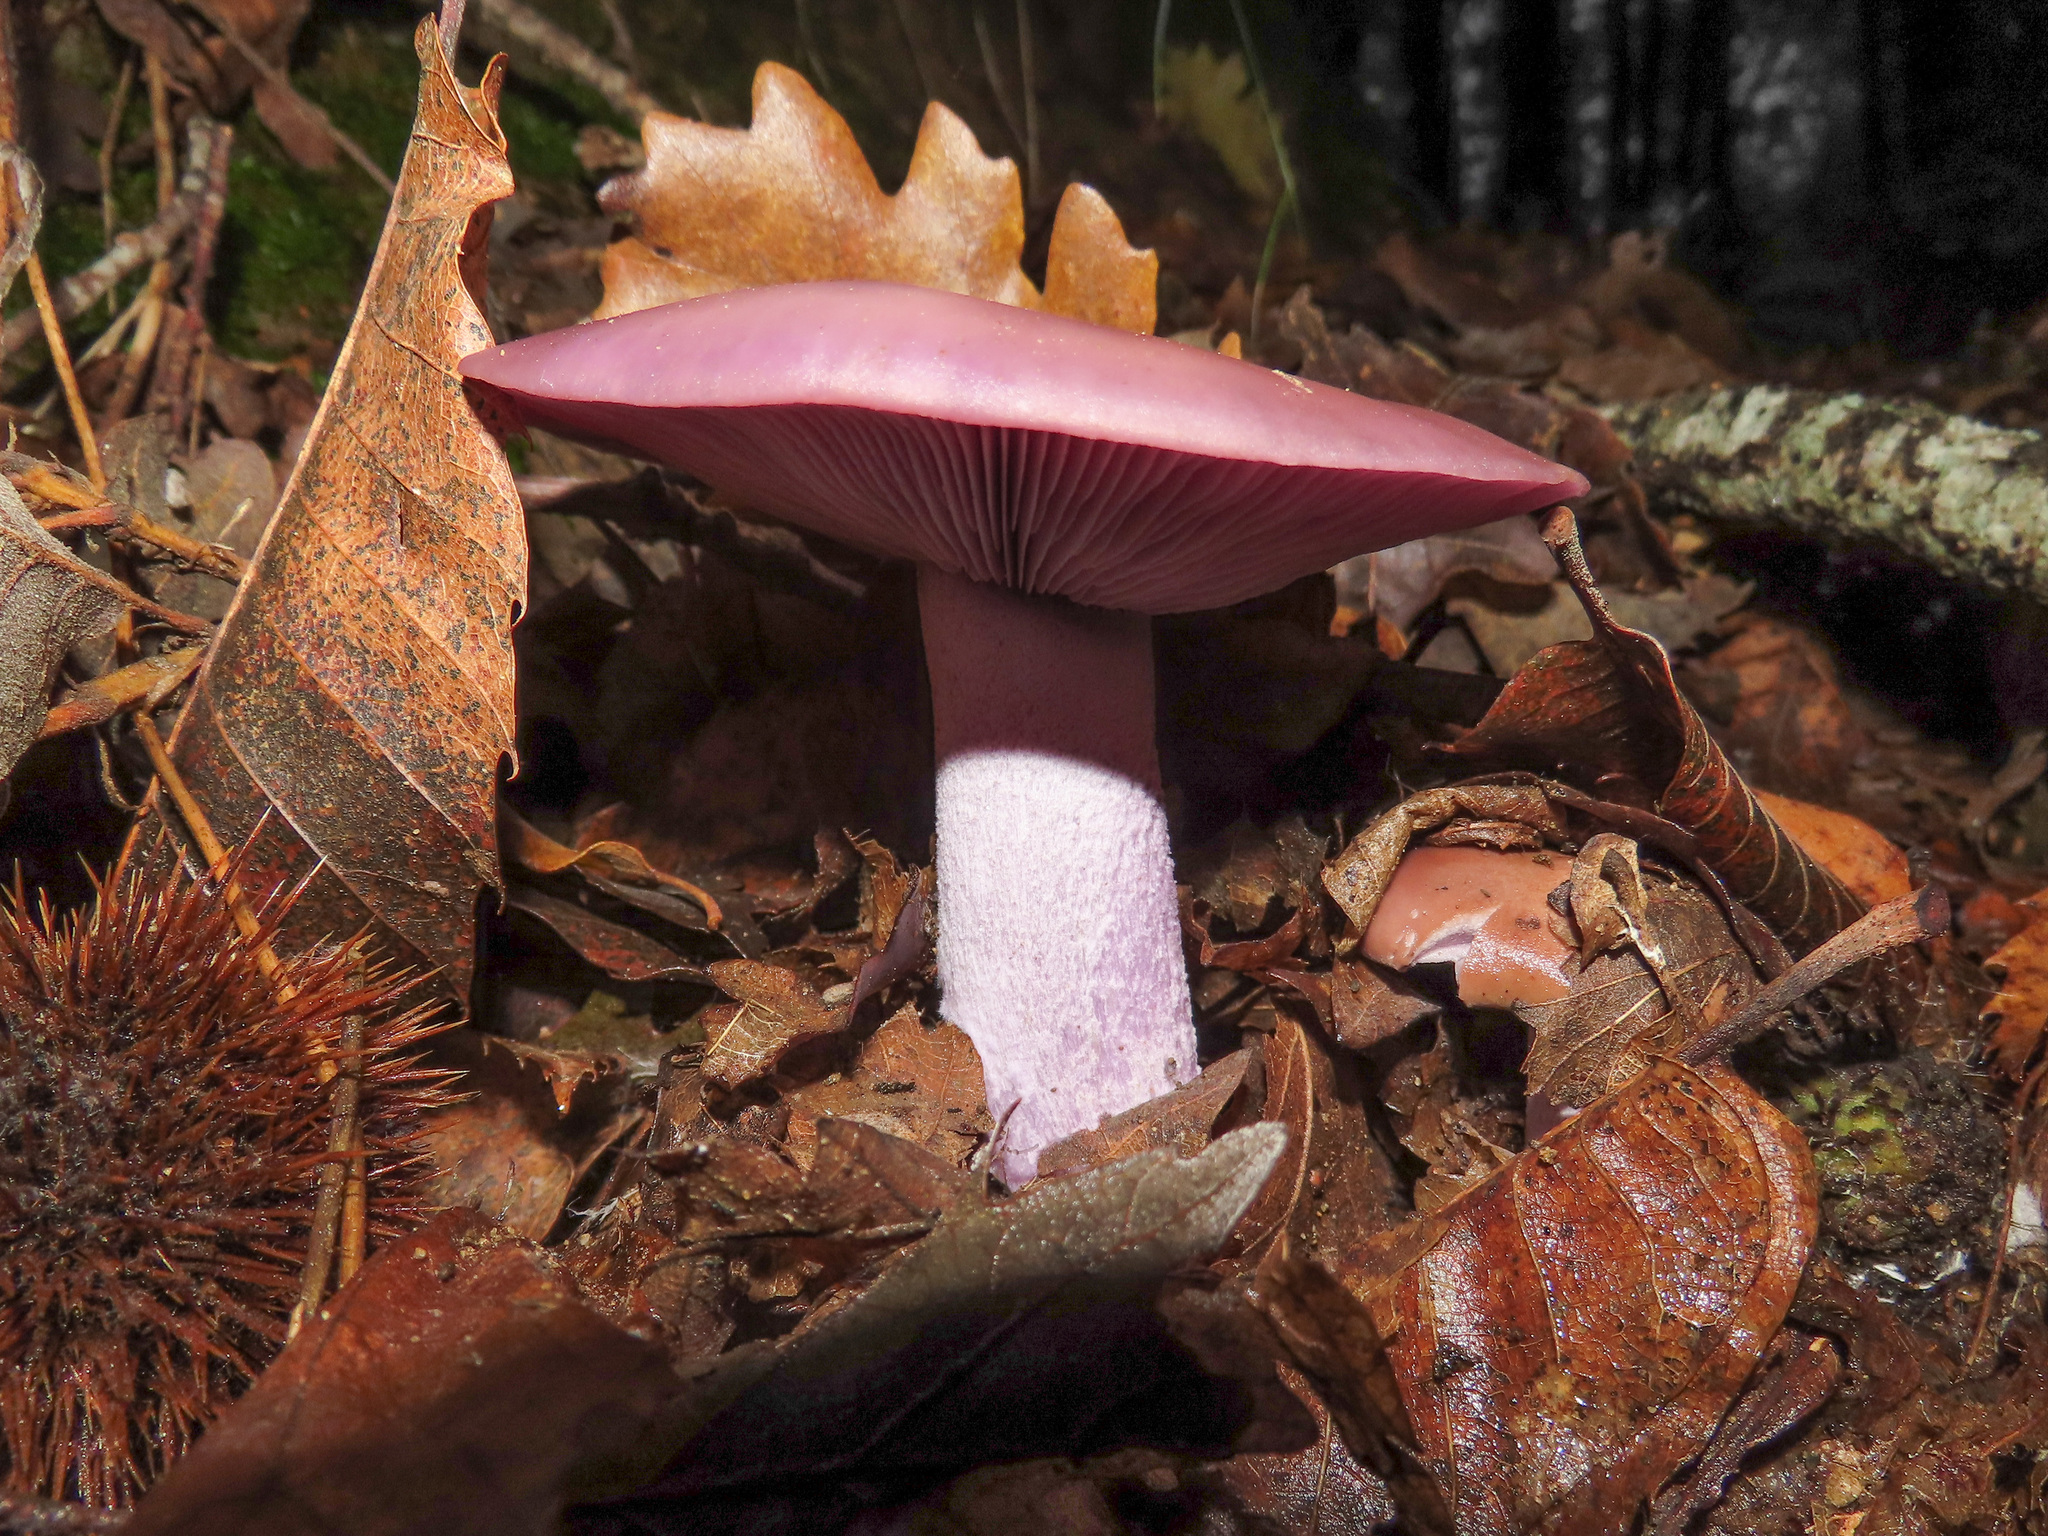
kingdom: Fungi
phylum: Basidiomycota
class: Agaricomycetes
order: Agaricales
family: Tricholomataceae
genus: Collybia
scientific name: Collybia
